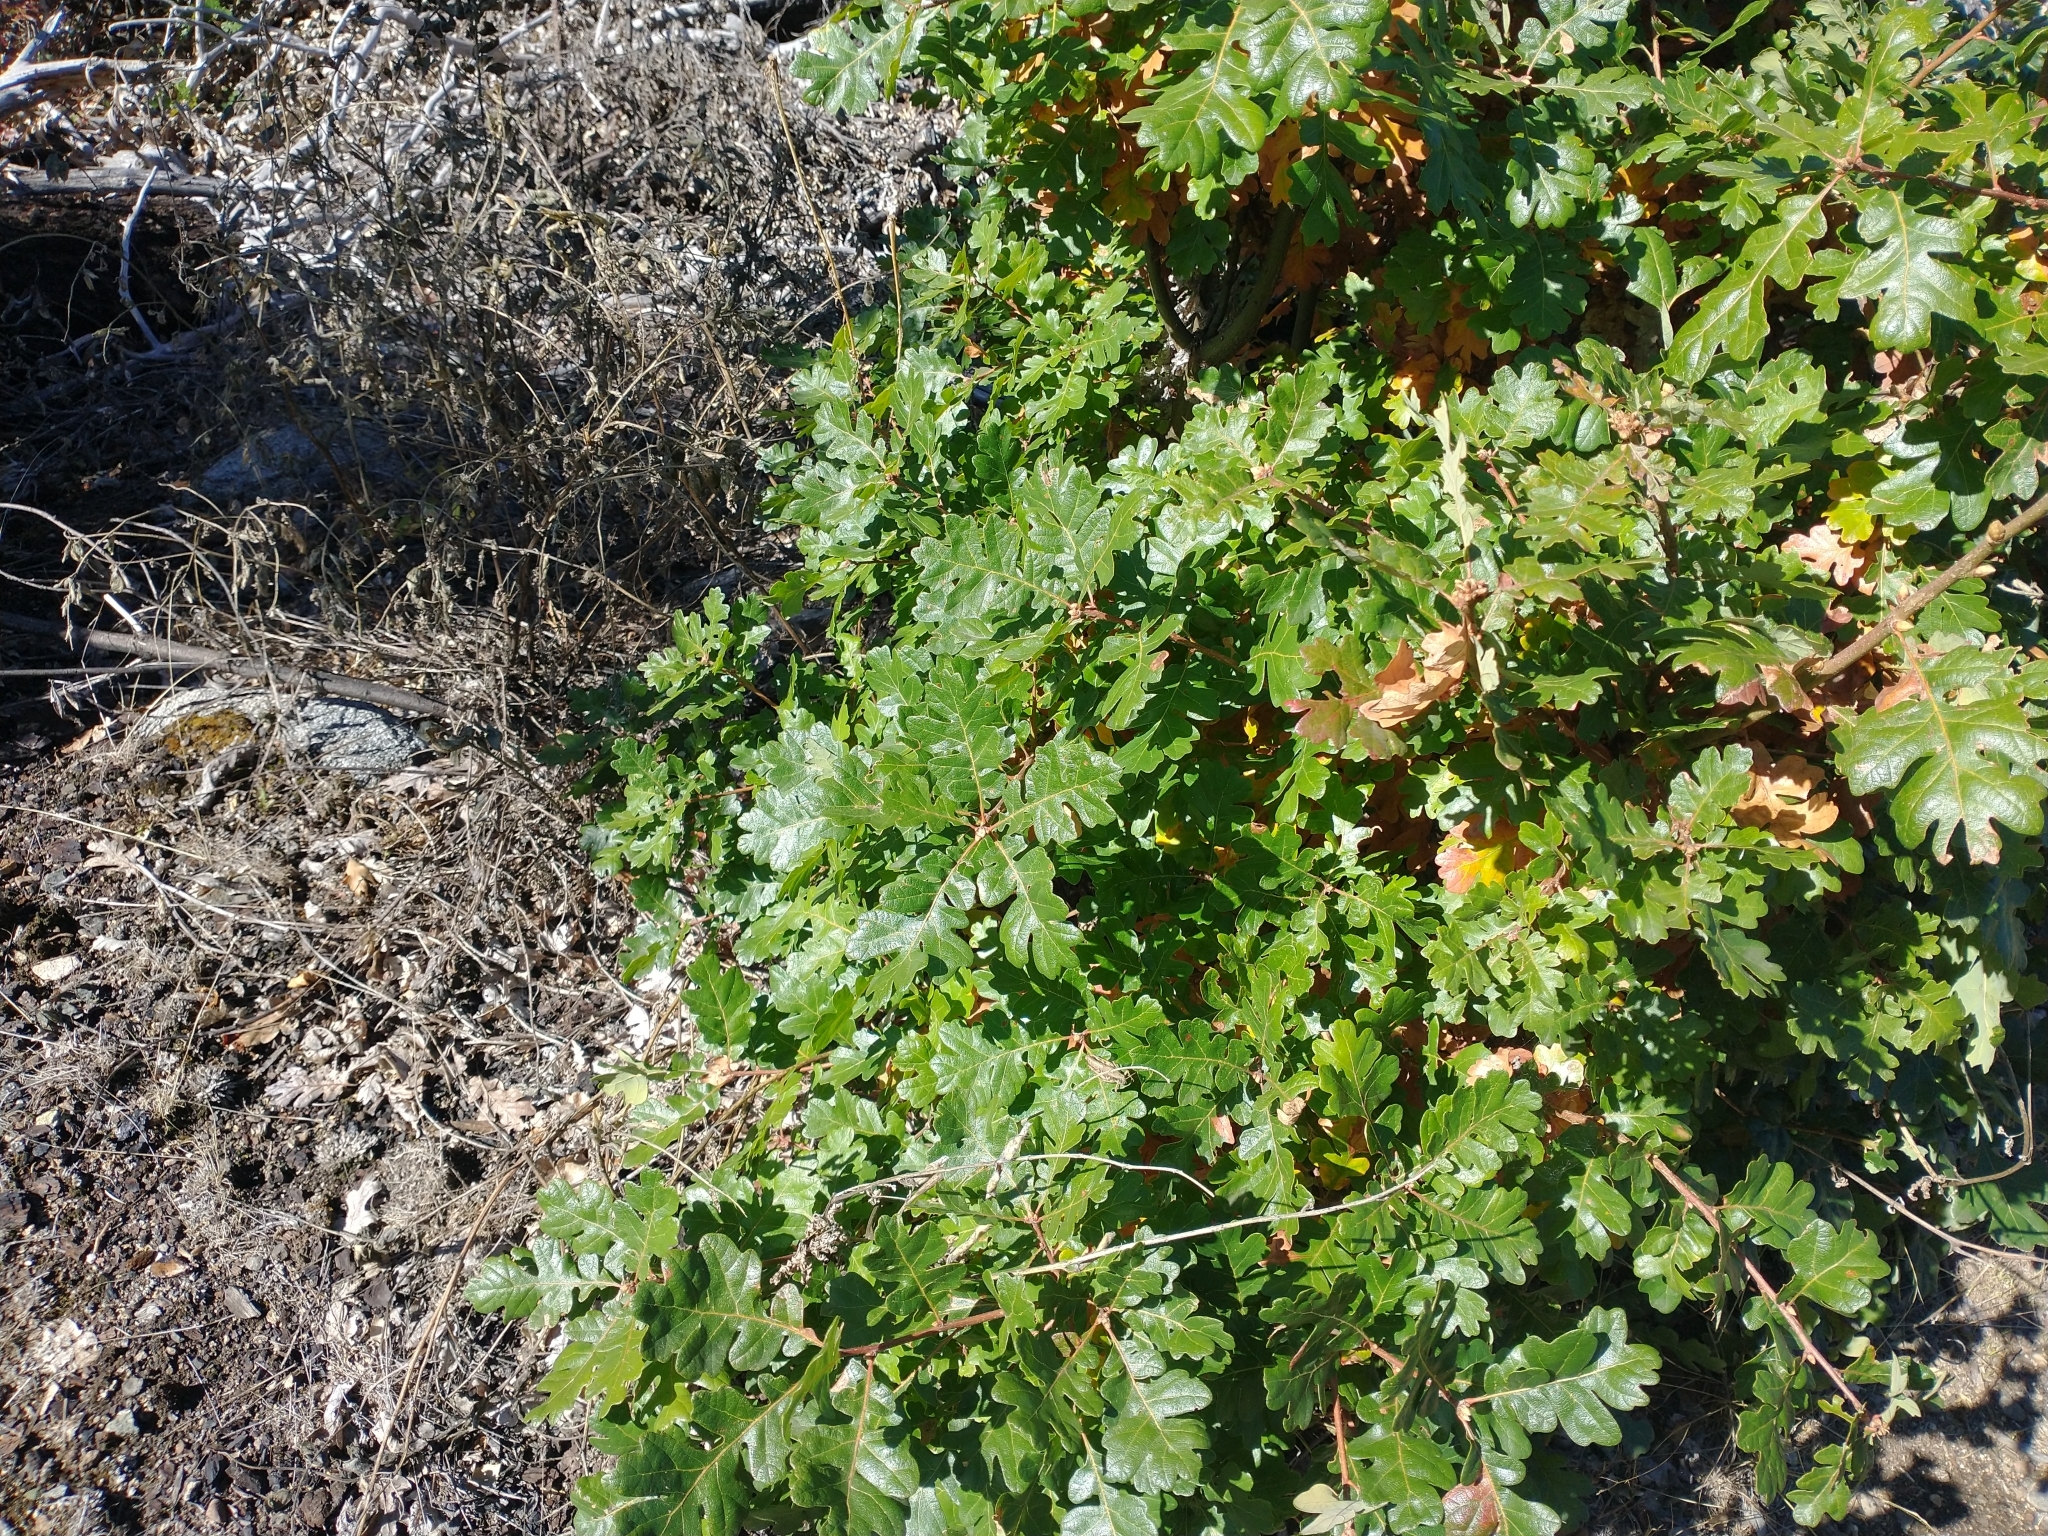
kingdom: Plantae
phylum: Tracheophyta
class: Magnoliopsida
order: Fagales
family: Fagaceae
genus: Quercus
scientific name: Quercus garryana
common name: Garry oak
